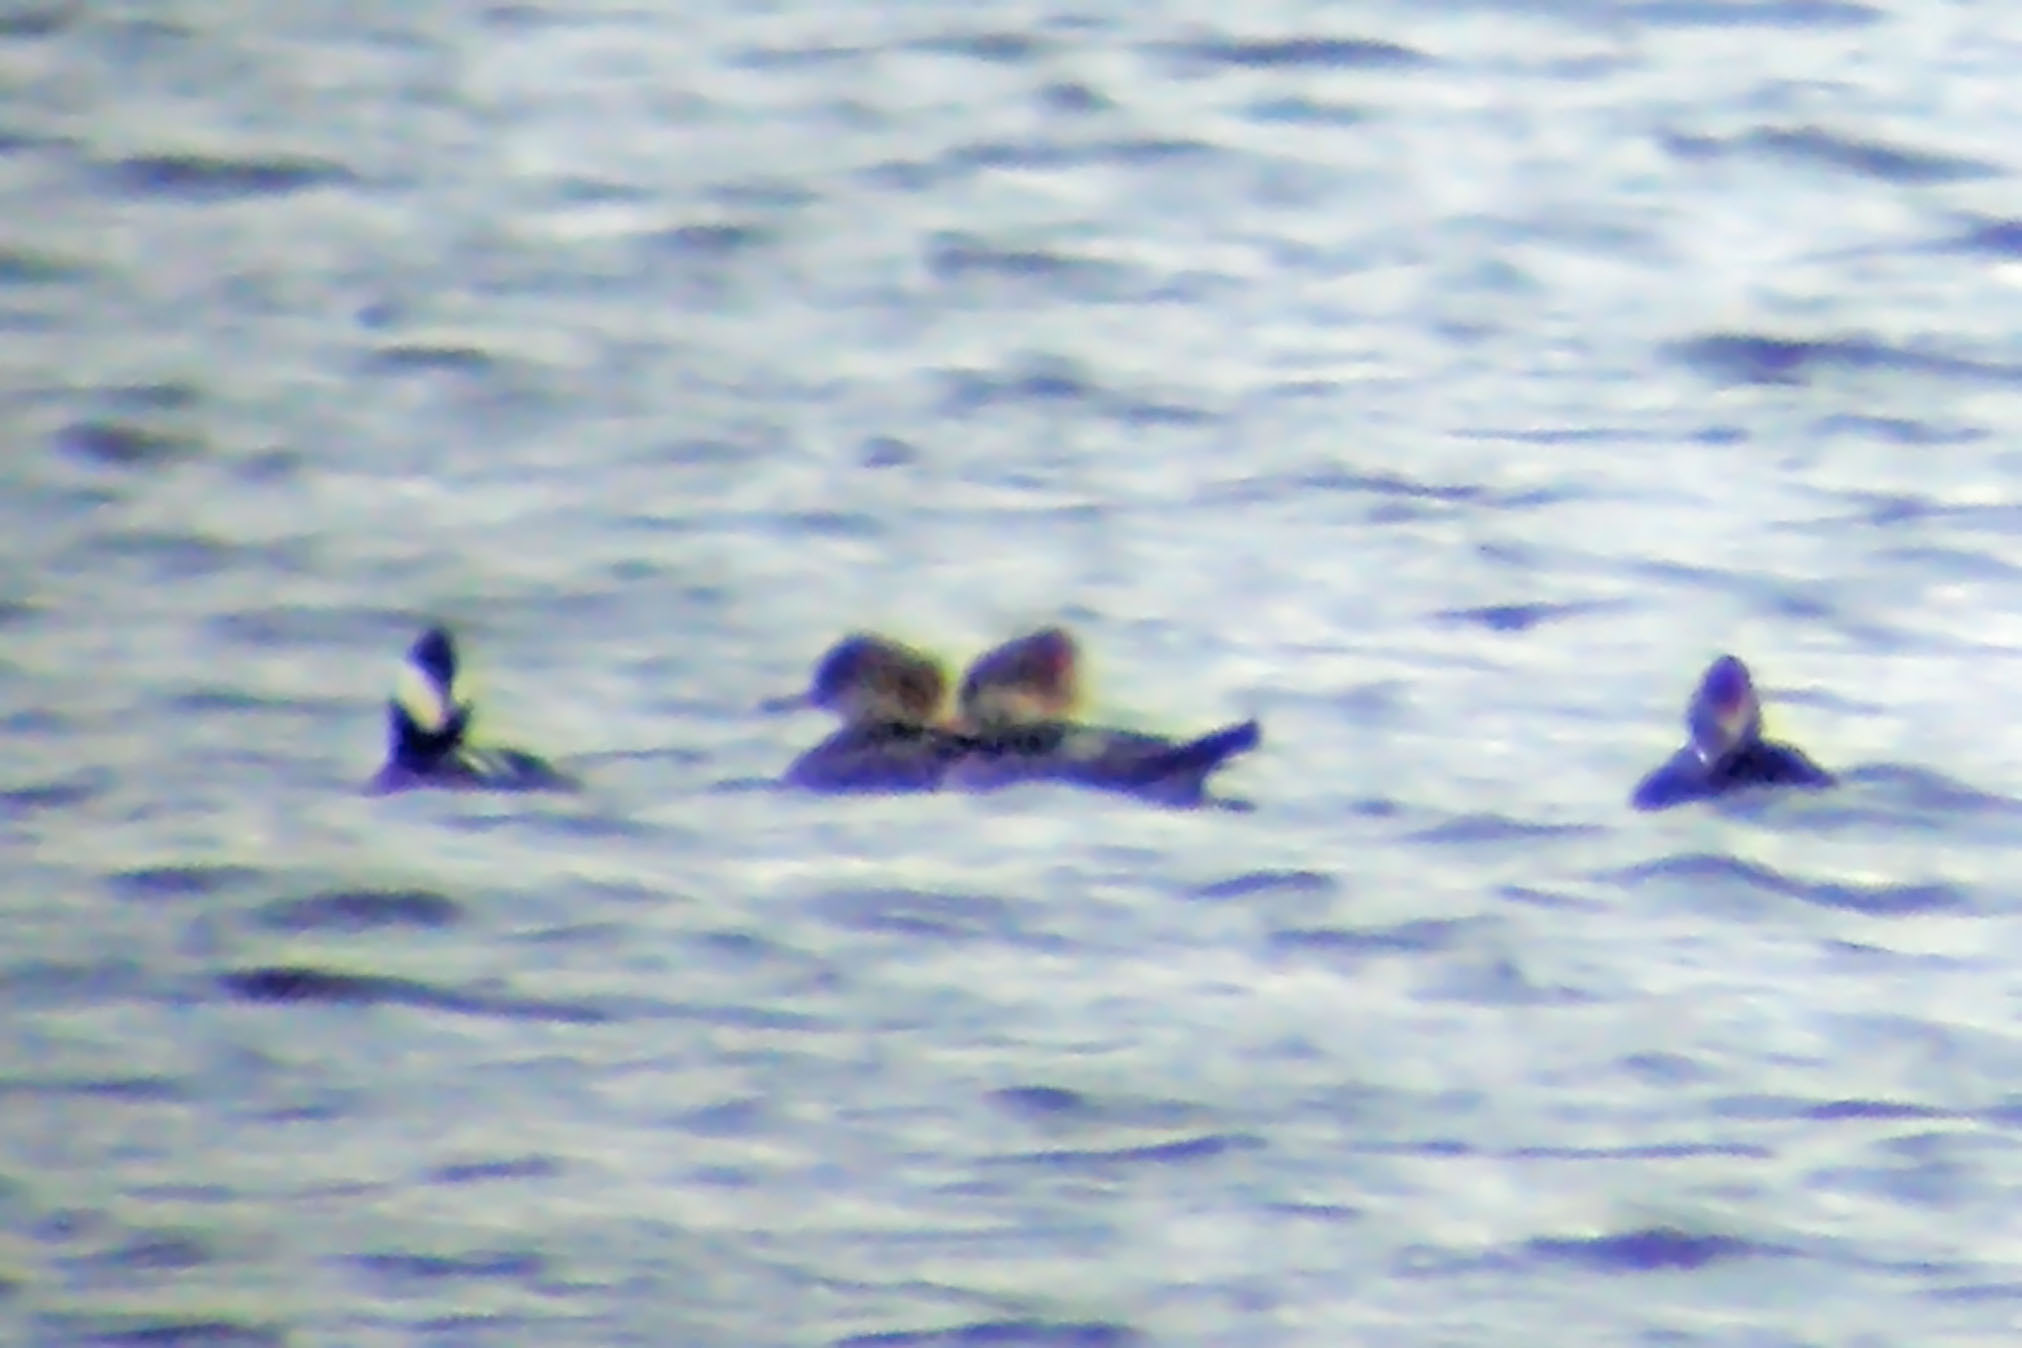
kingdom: Animalia
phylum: Chordata
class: Aves
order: Anseriformes
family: Anatidae
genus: Lophodytes
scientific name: Lophodytes cucullatus
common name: Hooded merganser
